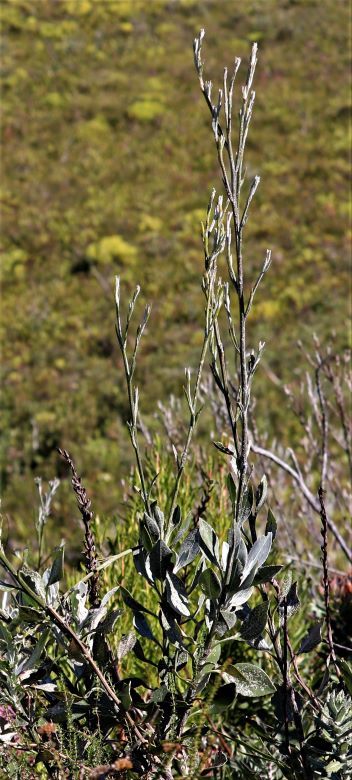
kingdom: Plantae
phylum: Tracheophyta
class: Magnoliopsida
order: Asterales
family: Asteraceae
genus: Osteospermum
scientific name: Osteospermum junceum
